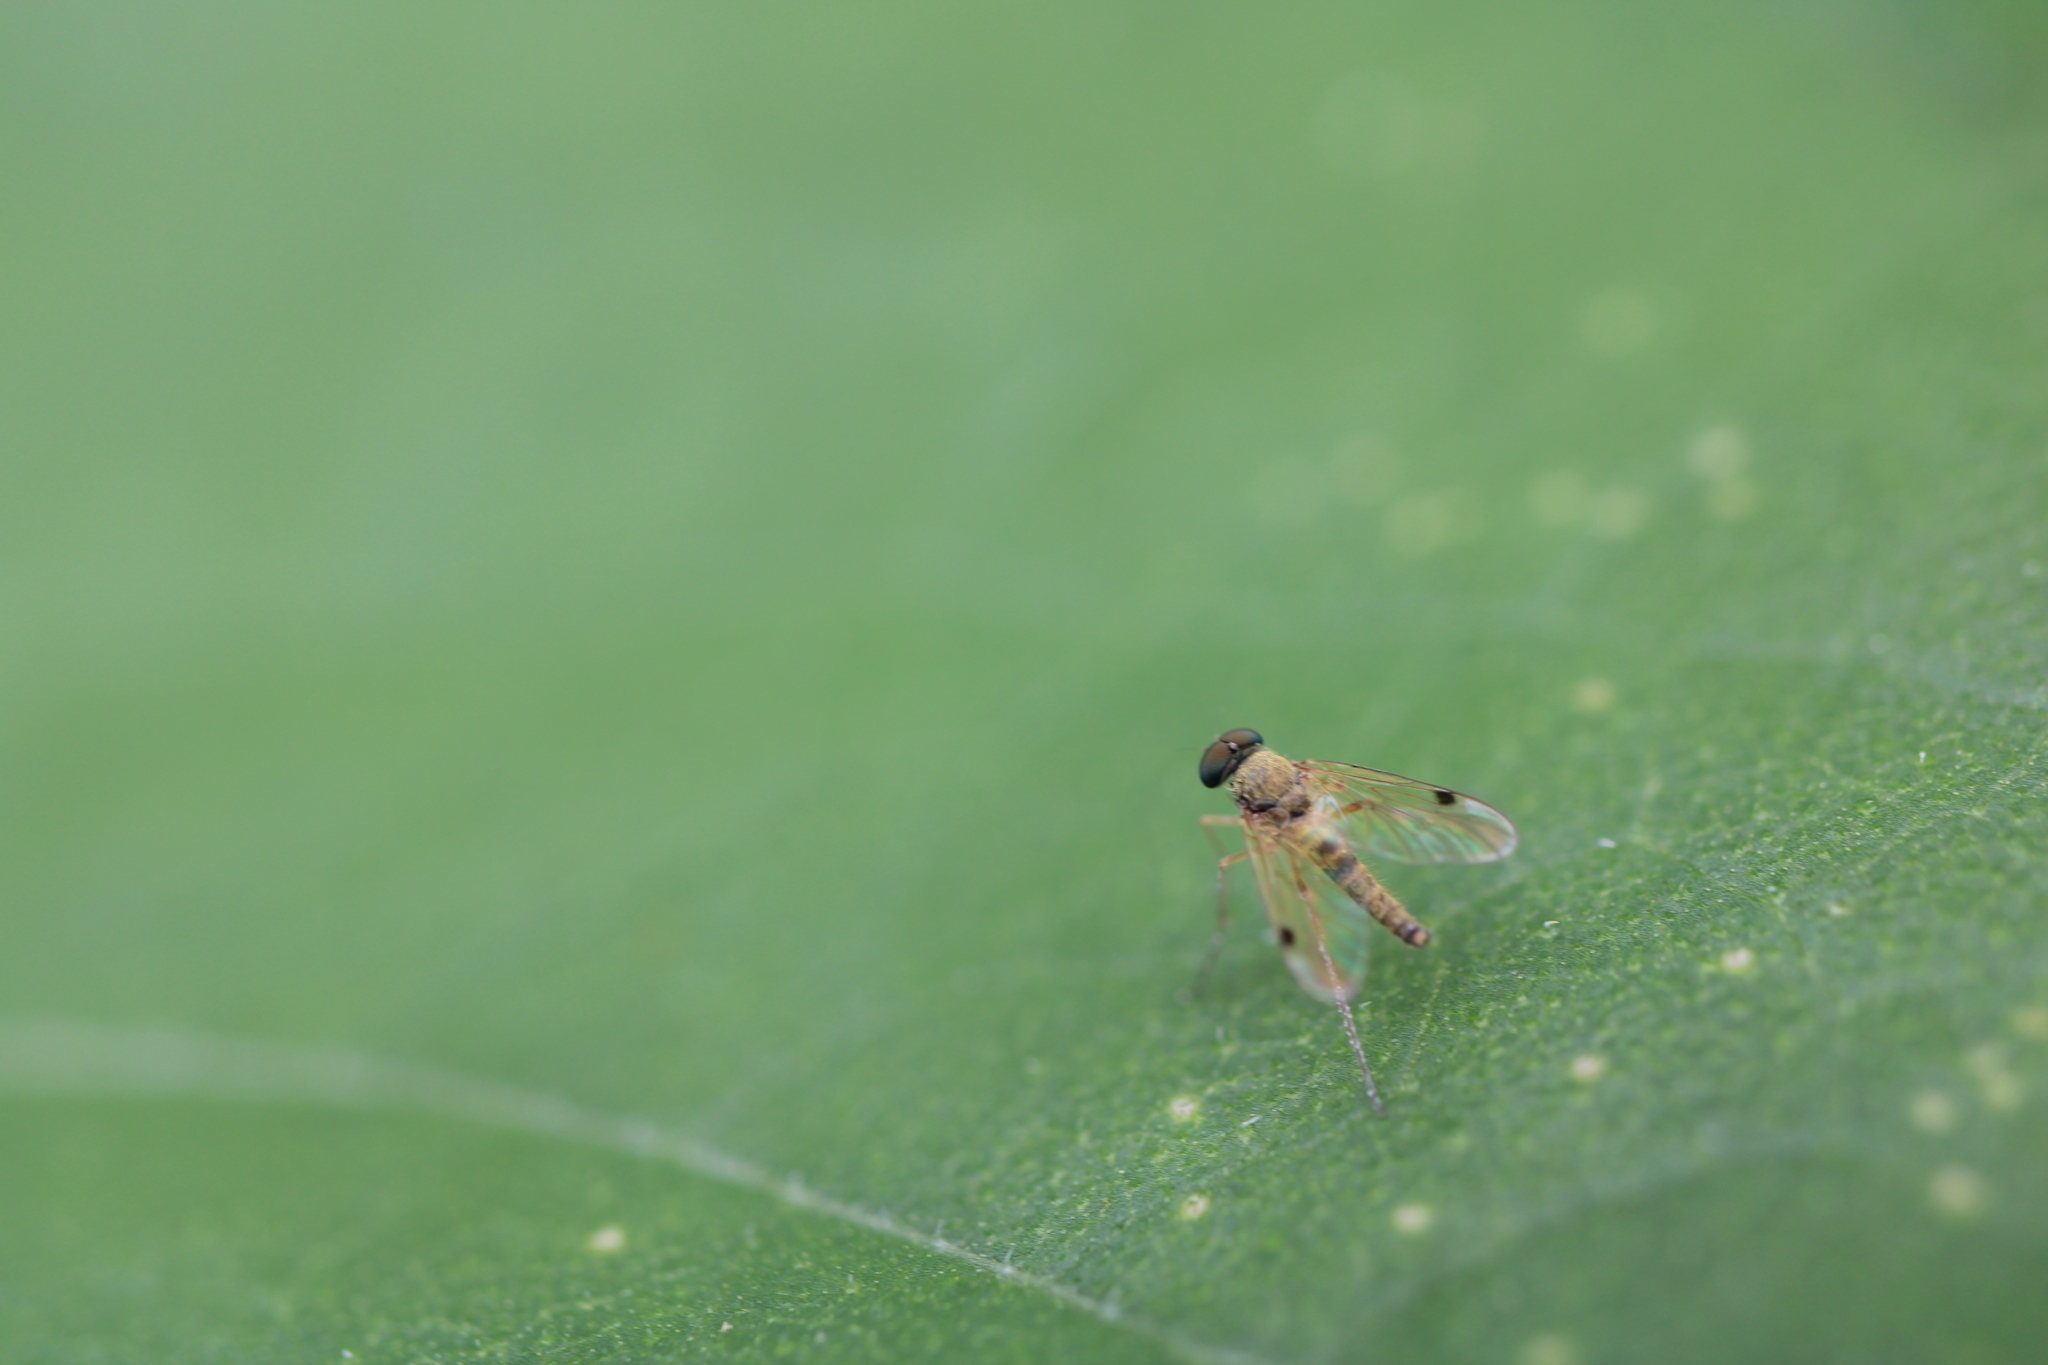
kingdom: Animalia
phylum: Arthropoda
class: Insecta
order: Diptera
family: Rhagionidae
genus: Chrysopilus
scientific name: Chrysopilus modestus
